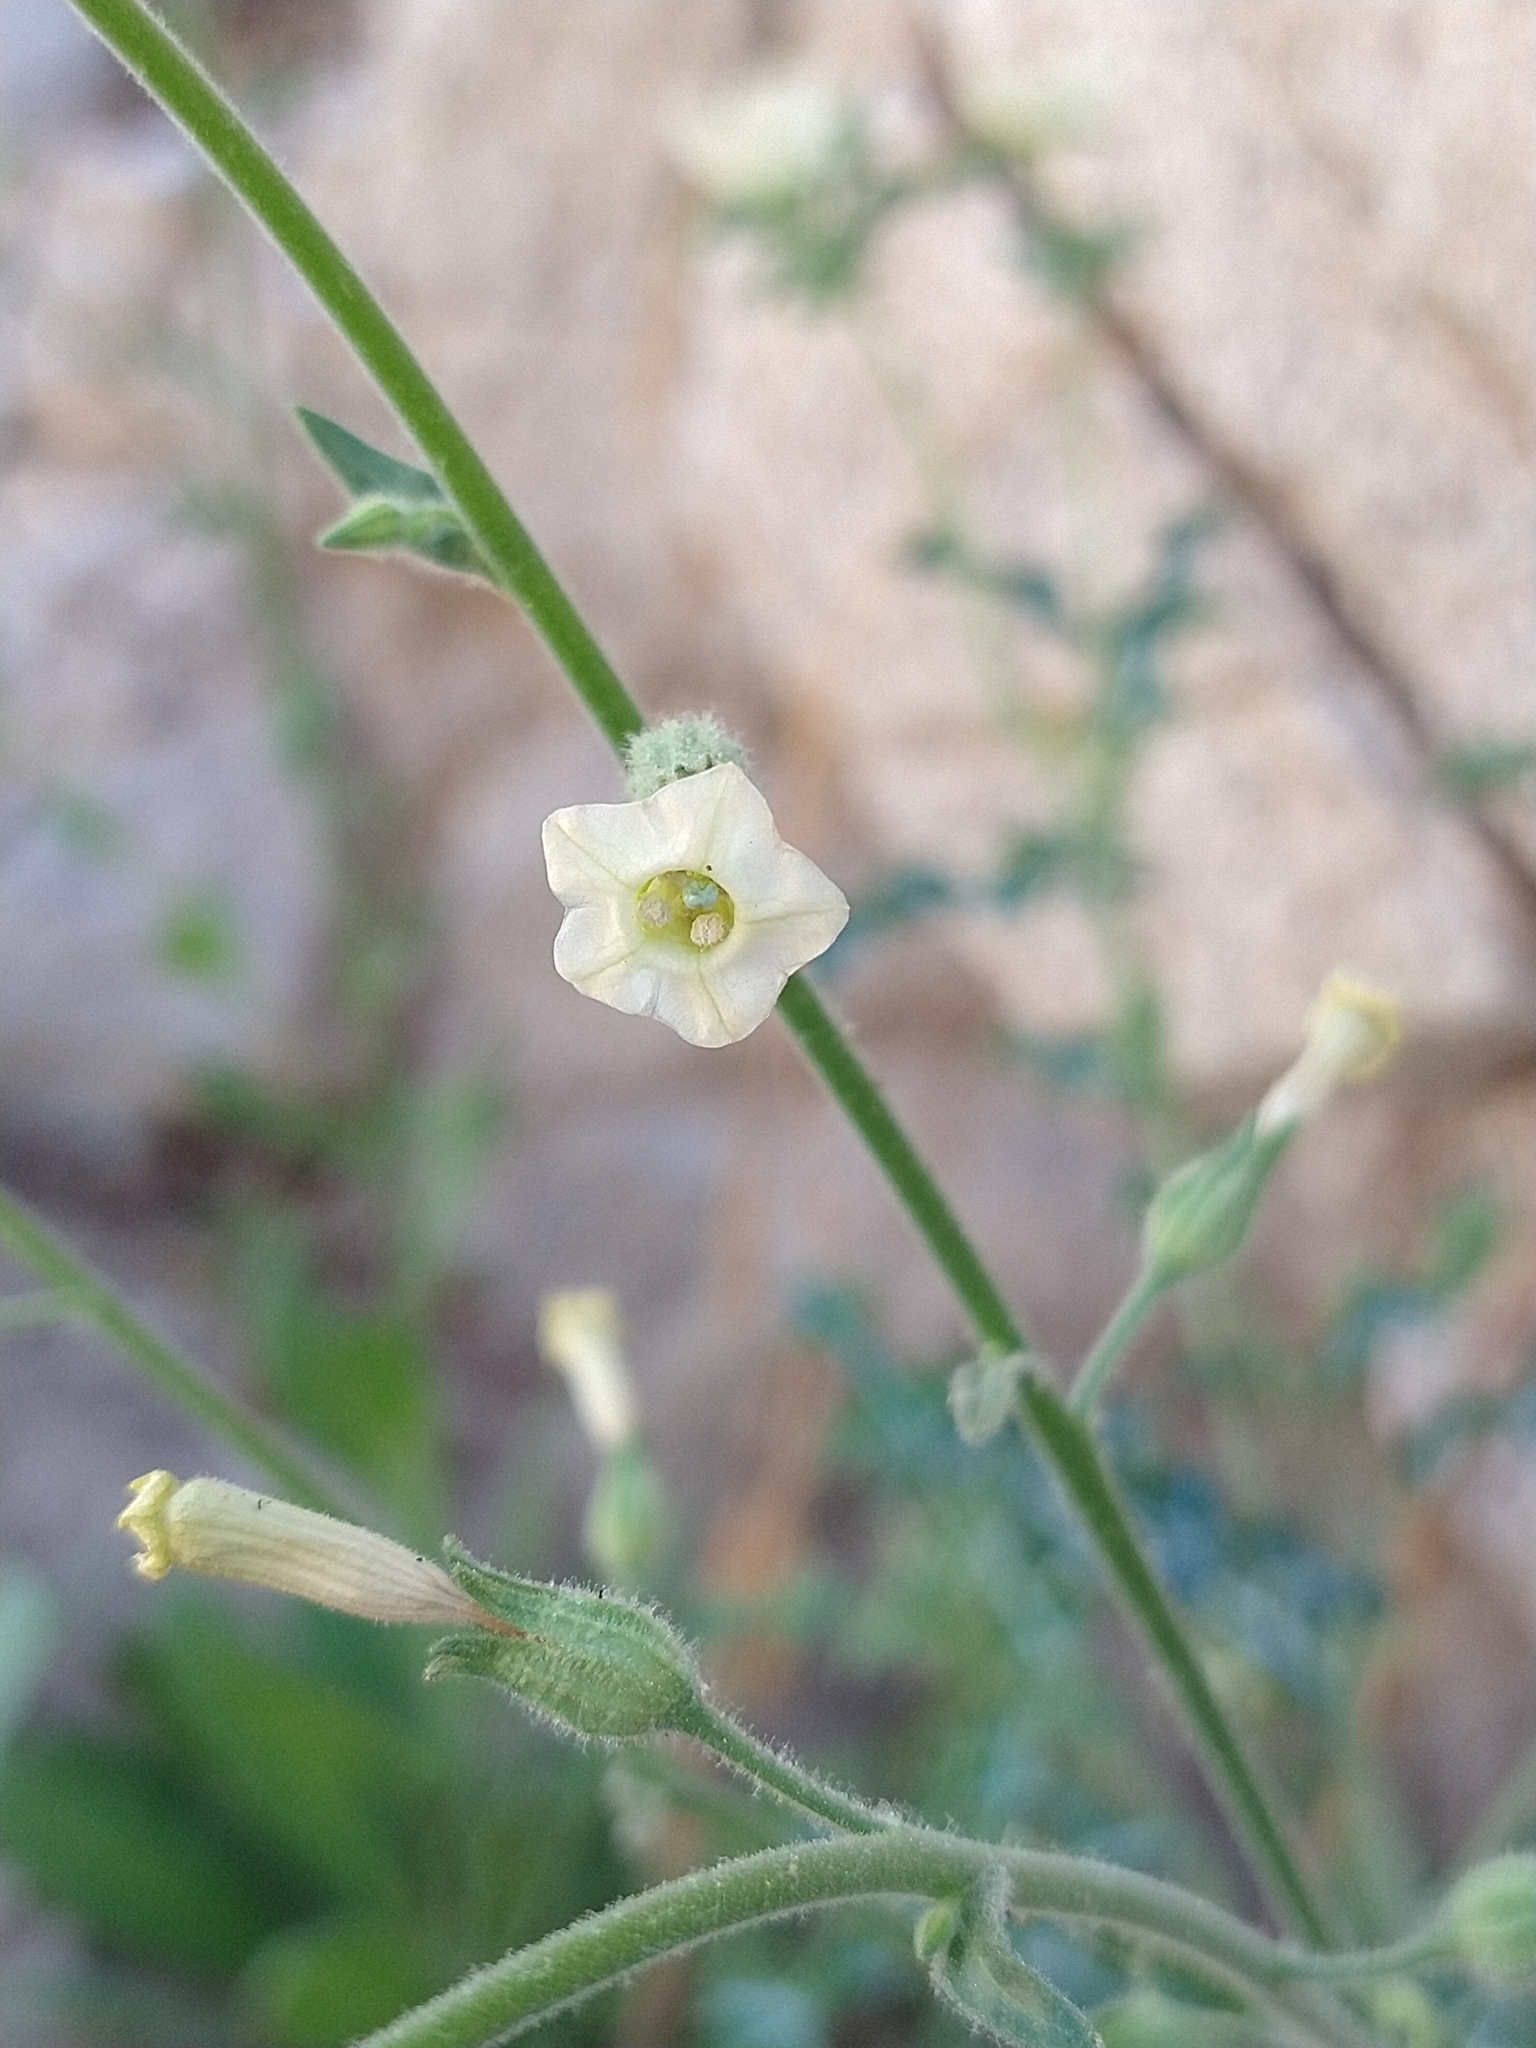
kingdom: Plantae
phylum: Tracheophyta
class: Magnoliopsida
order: Solanales
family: Solanaceae
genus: Nicotiana
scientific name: Nicotiana obtusifolia
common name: Desert tobacco
